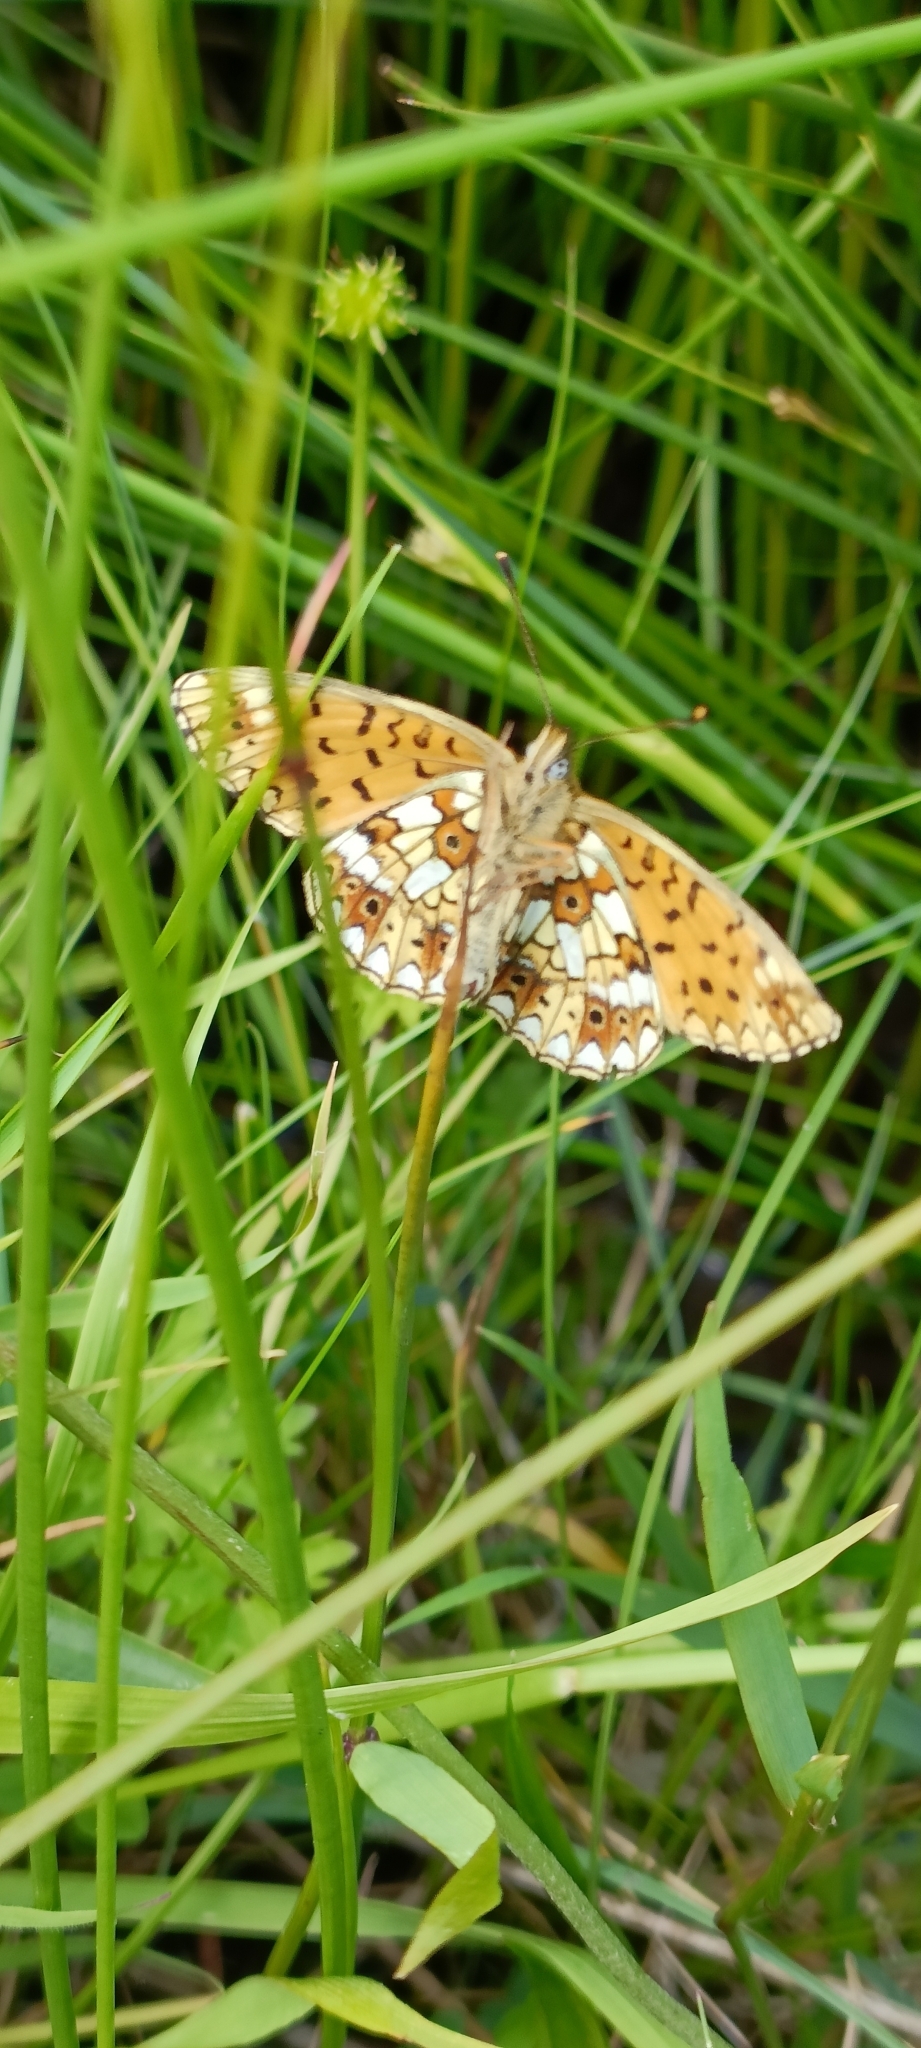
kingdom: Animalia
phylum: Arthropoda
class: Insecta
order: Lepidoptera
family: Nymphalidae
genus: Boloria
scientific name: Boloria selene
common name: Small pearl-bordered fritillary
